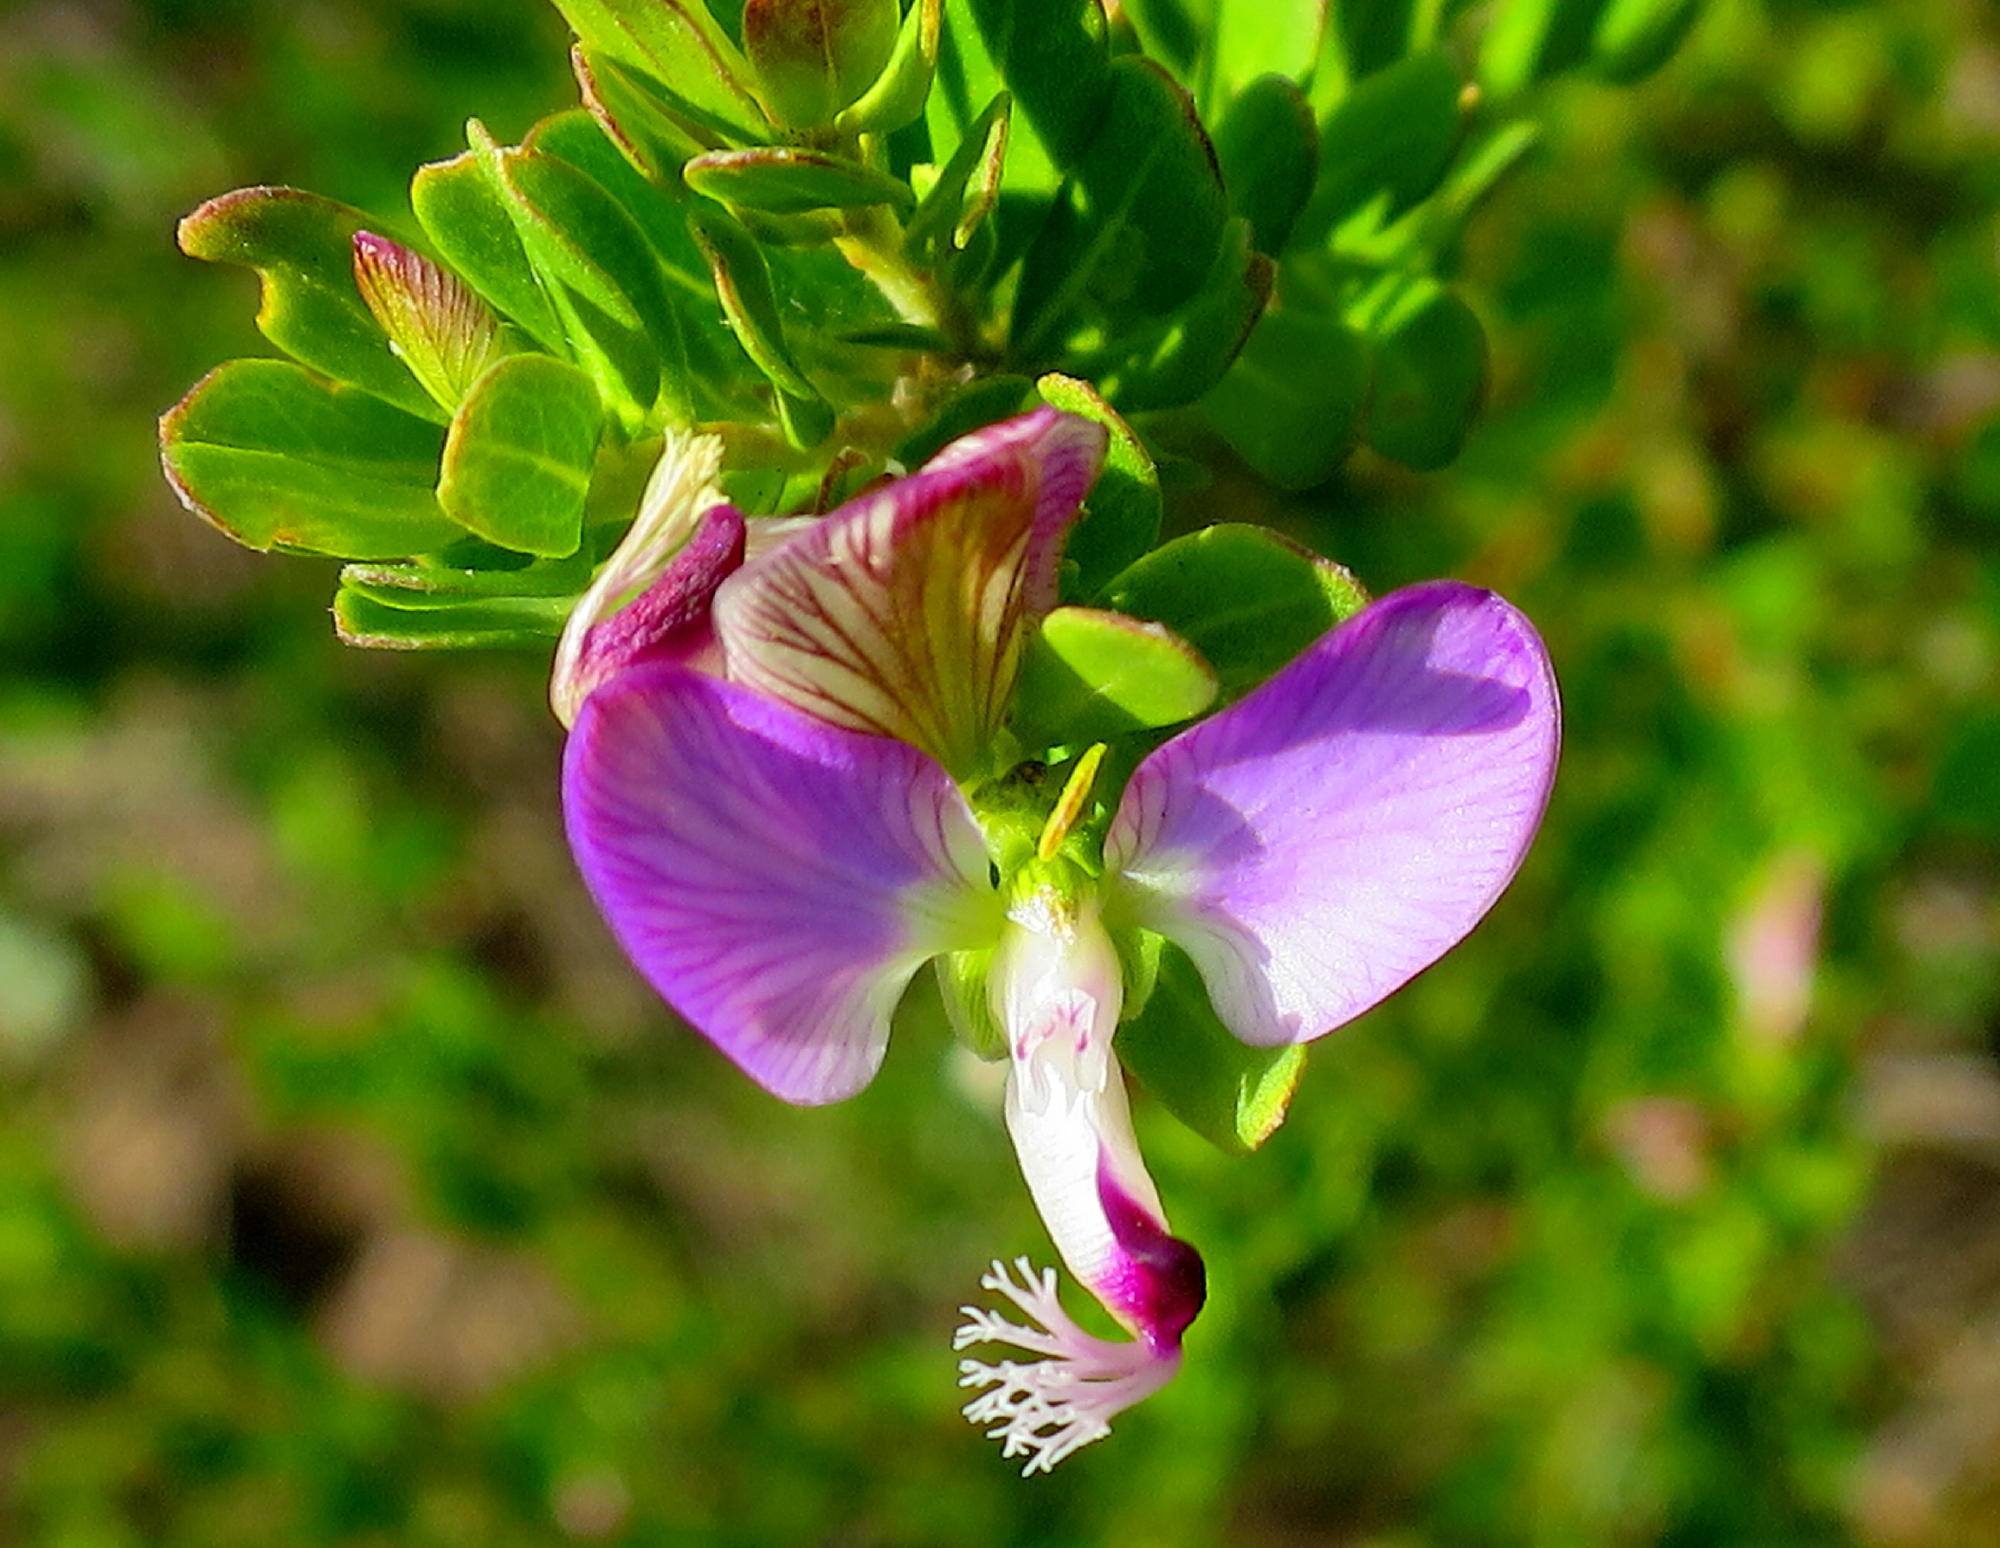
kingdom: Plantae
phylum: Tracheophyta
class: Magnoliopsida
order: Fabales
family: Polygalaceae
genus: Polygala
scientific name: Polygala myrtifolia
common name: Myrtle-leaf milkwort
